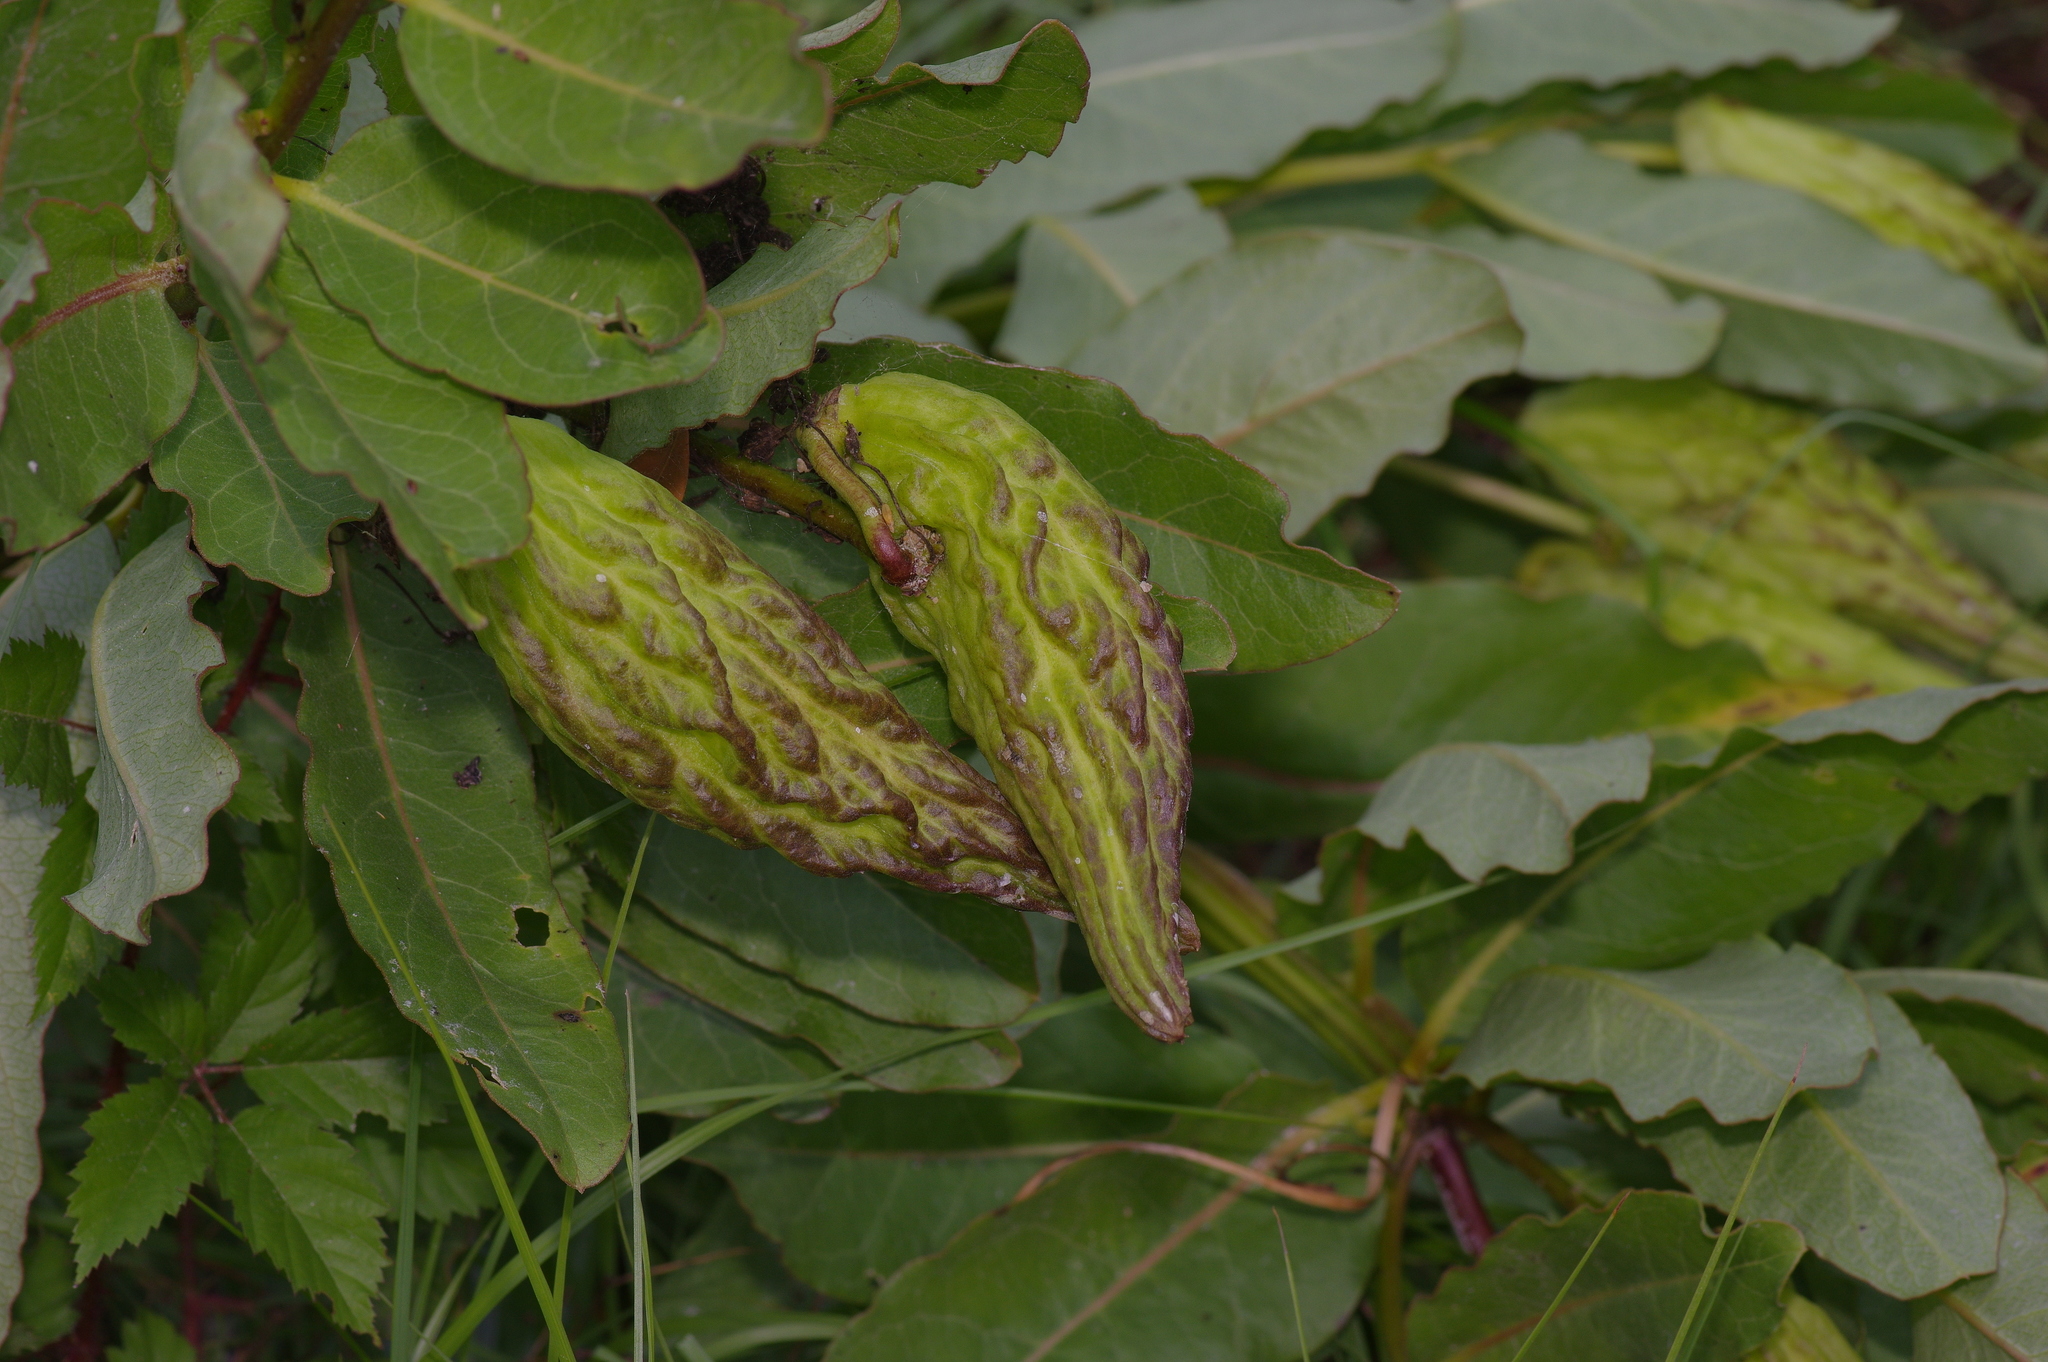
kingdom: Plantae
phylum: Tracheophyta
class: Magnoliopsida
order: Gentianales
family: Apocynaceae
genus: Asclepias
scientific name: Asclepias viridis
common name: Antelope-horns
